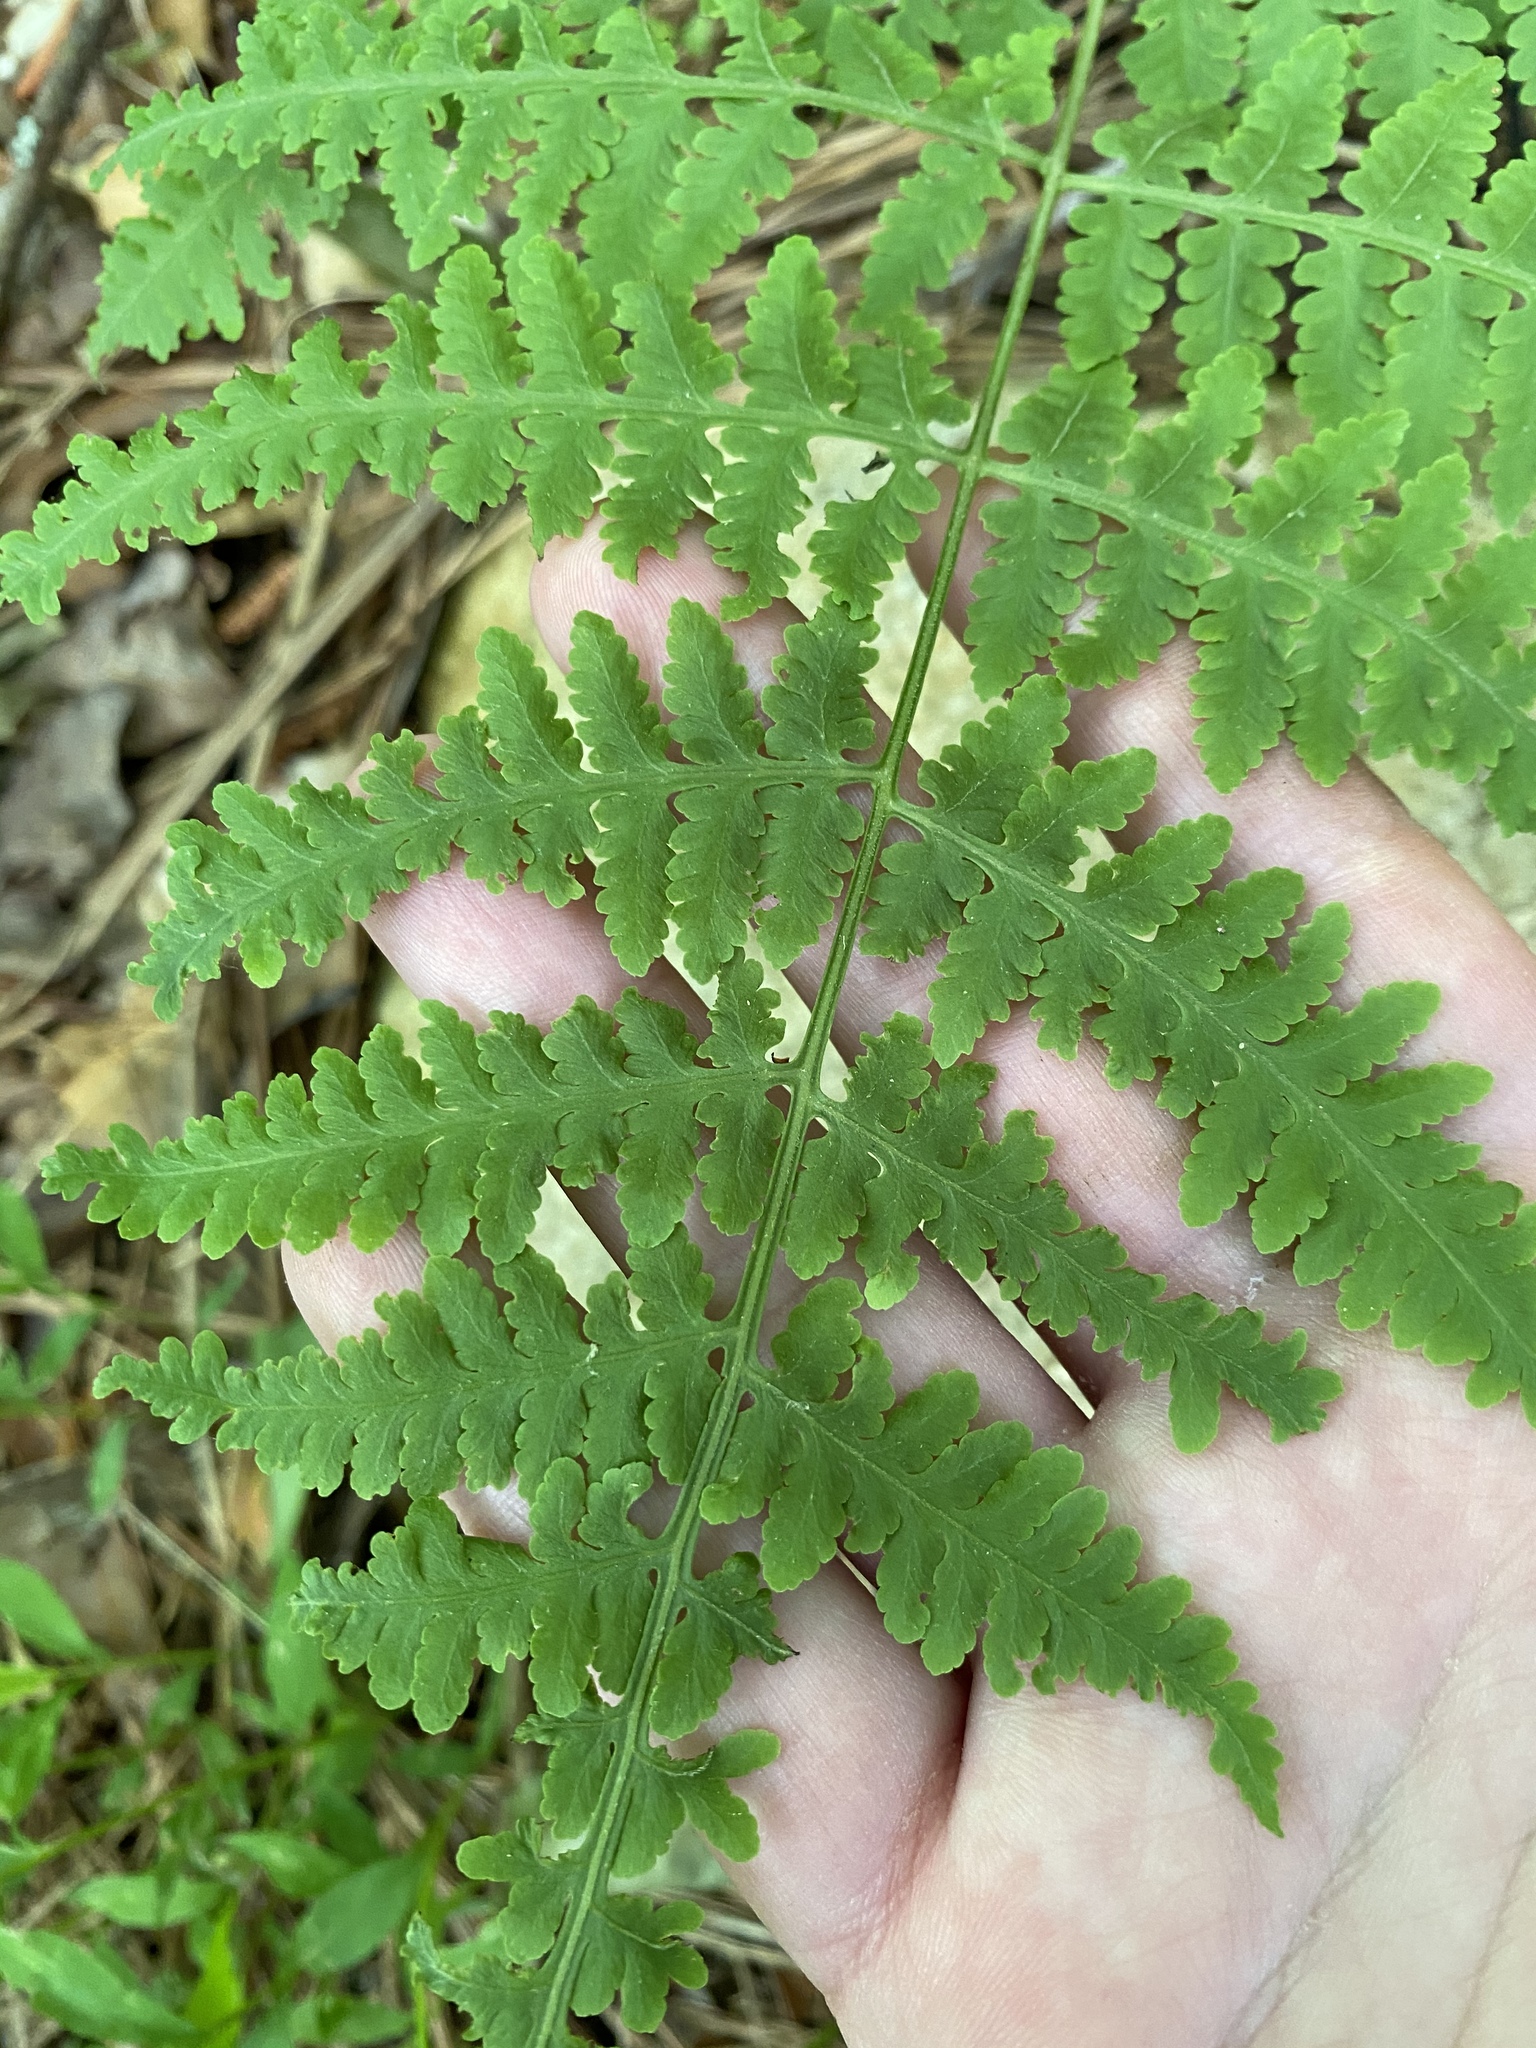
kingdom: Plantae
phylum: Tracheophyta
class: Polypodiopsida
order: Polypodiales
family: Thelypteridaceae
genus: Macrothelypteris
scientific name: Macrothelypteris torresiana
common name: Swordfern
